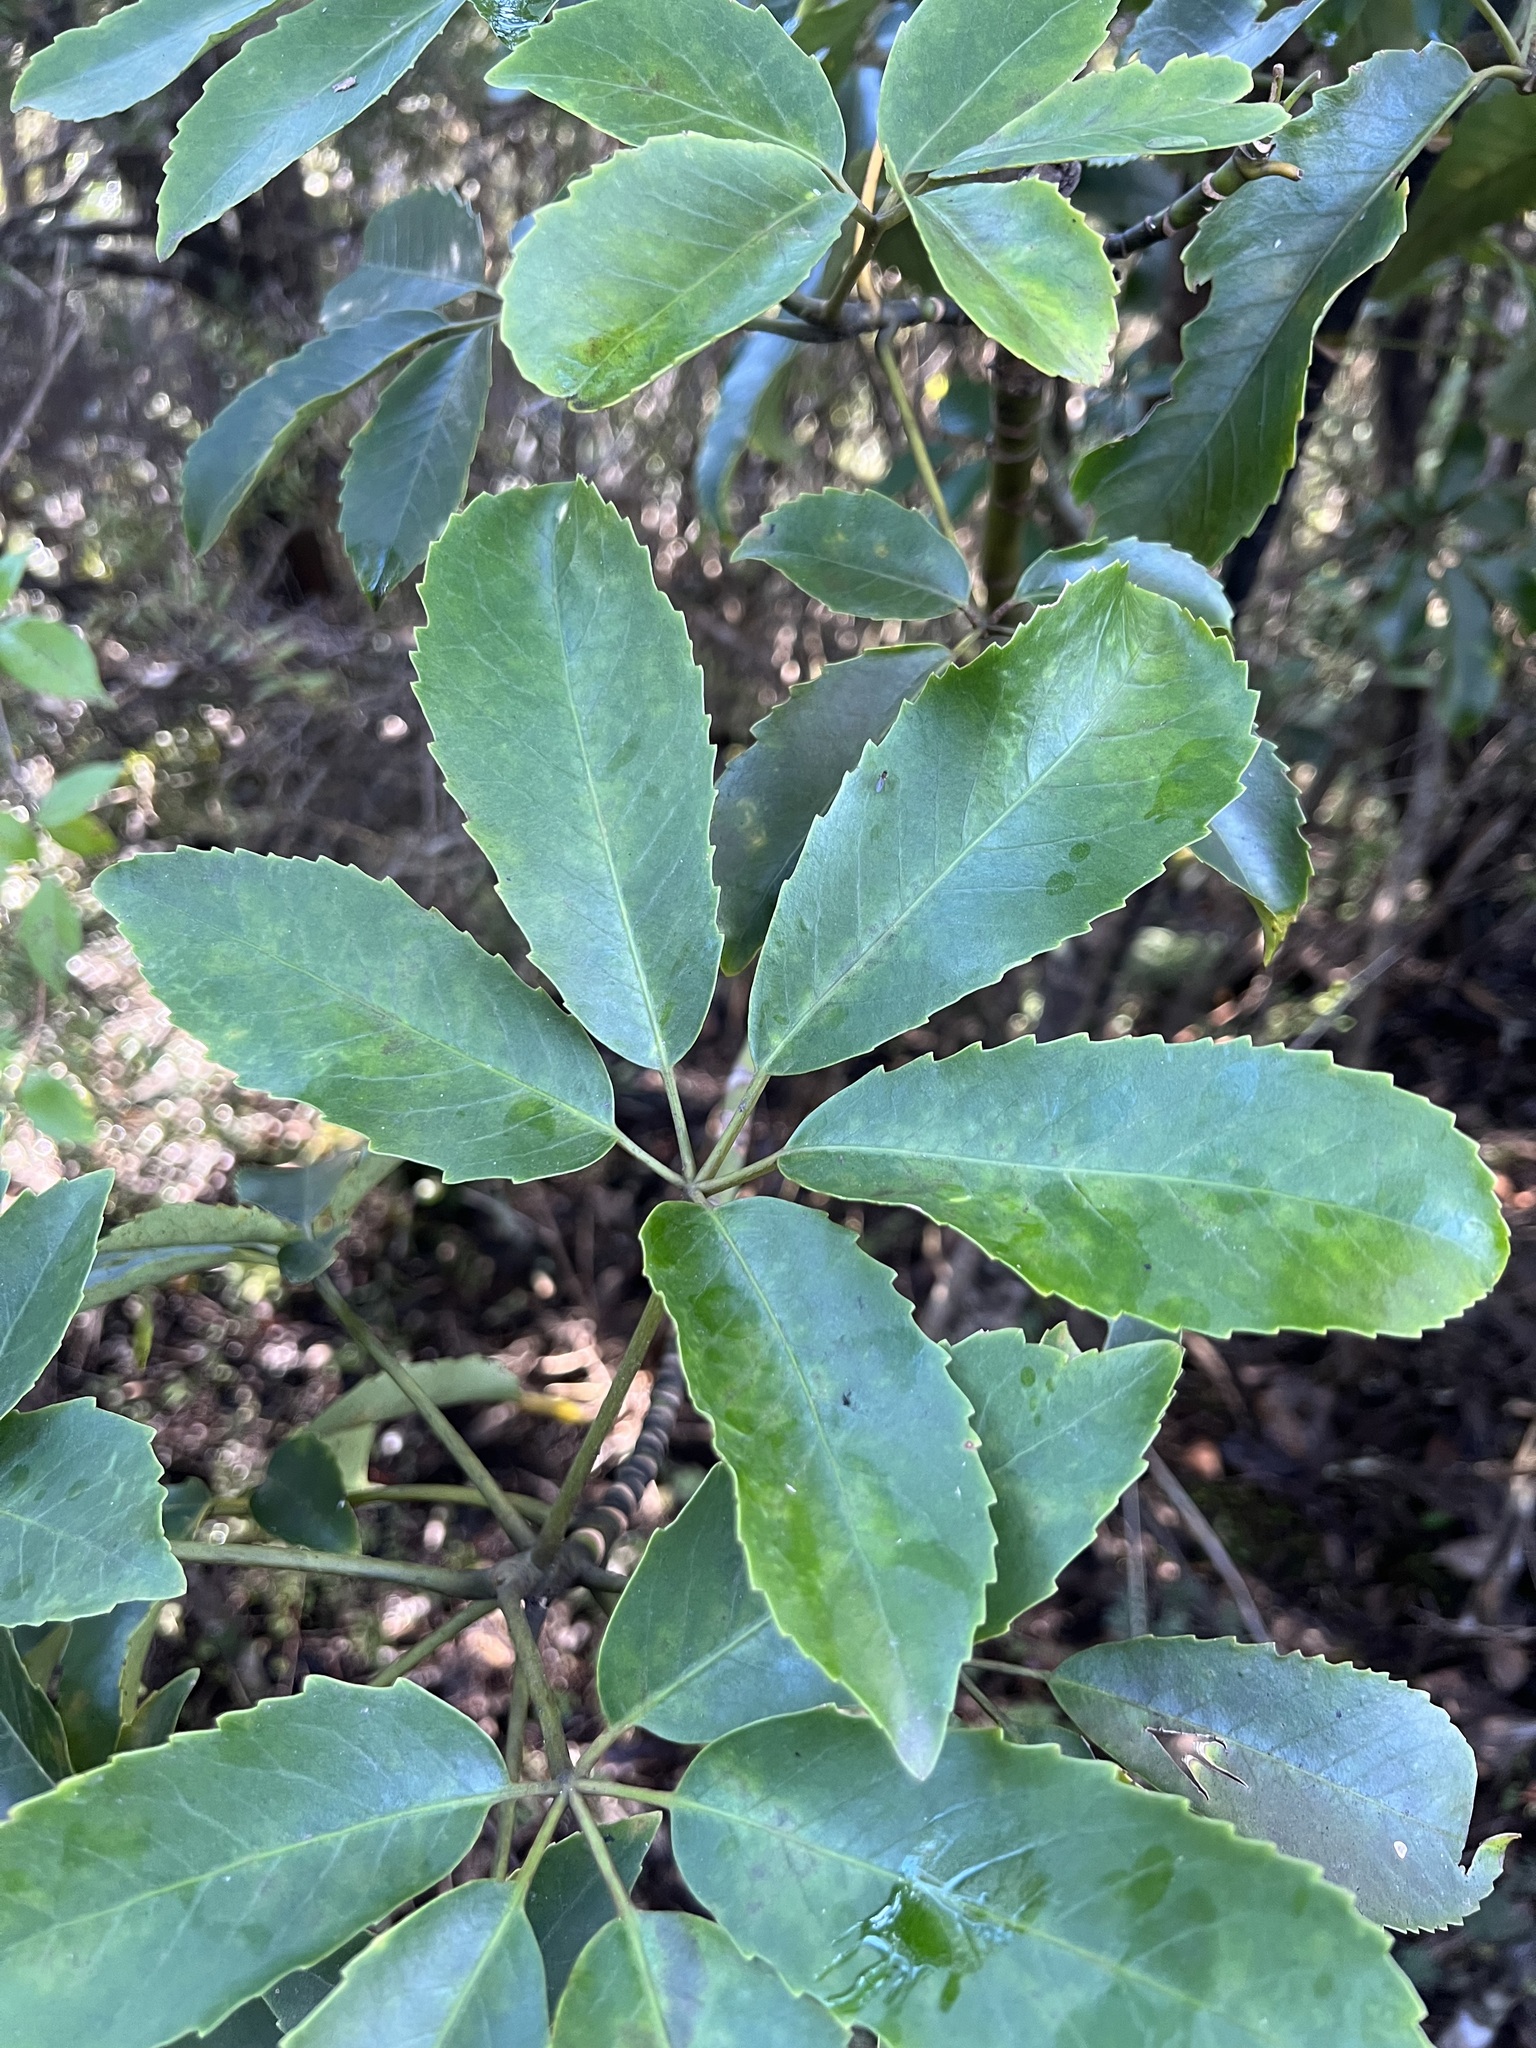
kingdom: Plantae
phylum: Tracheophyta
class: Magnoliopsida
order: Apiales
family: Araliaceae
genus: Neopanax
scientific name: Neopanax arboreus
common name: Five-fingers
